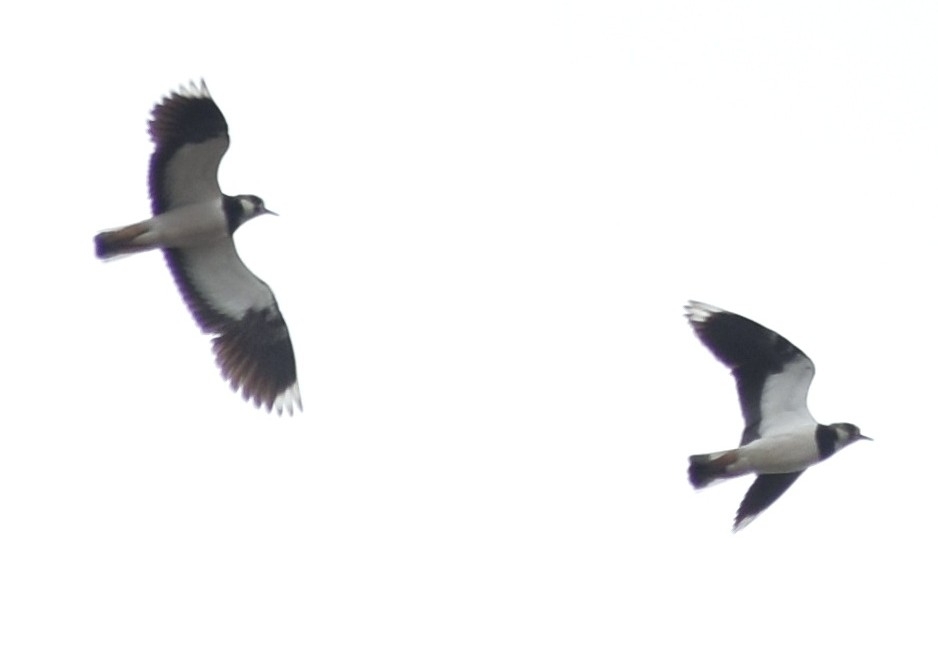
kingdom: Animalia
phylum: Chordata
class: Aves
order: Charadriiformes
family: Charadriidae
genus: Vanellus
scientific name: Vanellus vanellus
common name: Northern lapwing
